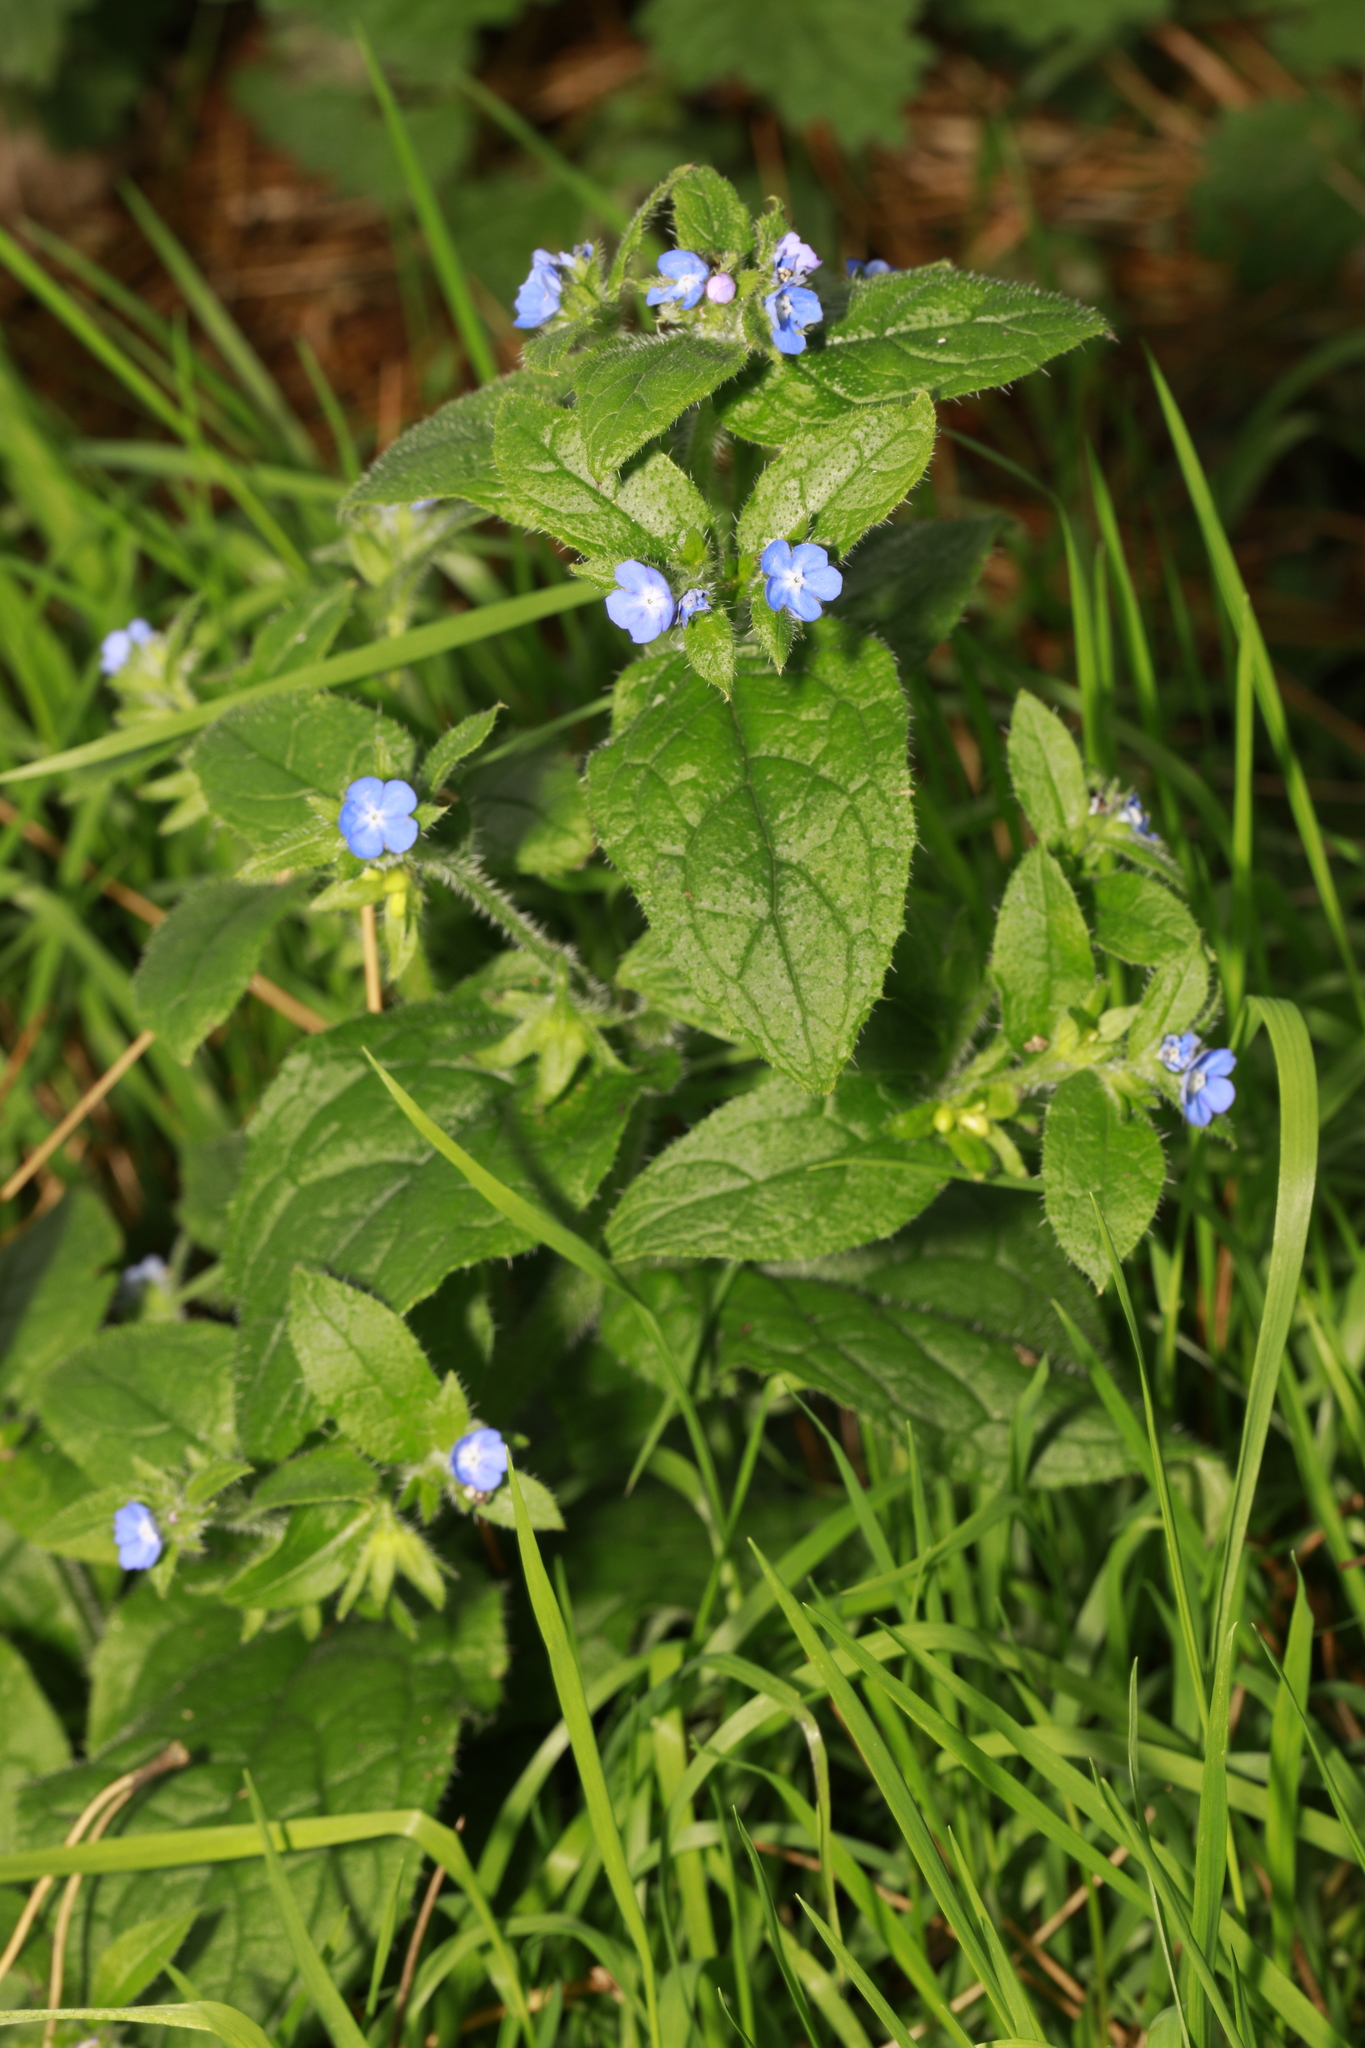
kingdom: Plantae
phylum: Tracheophyta
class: Magnoliopsida
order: Boraginales
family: Boraginaceae
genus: Pentaglottis
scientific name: Pentaglottis sempervirens
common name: Green alkanet
